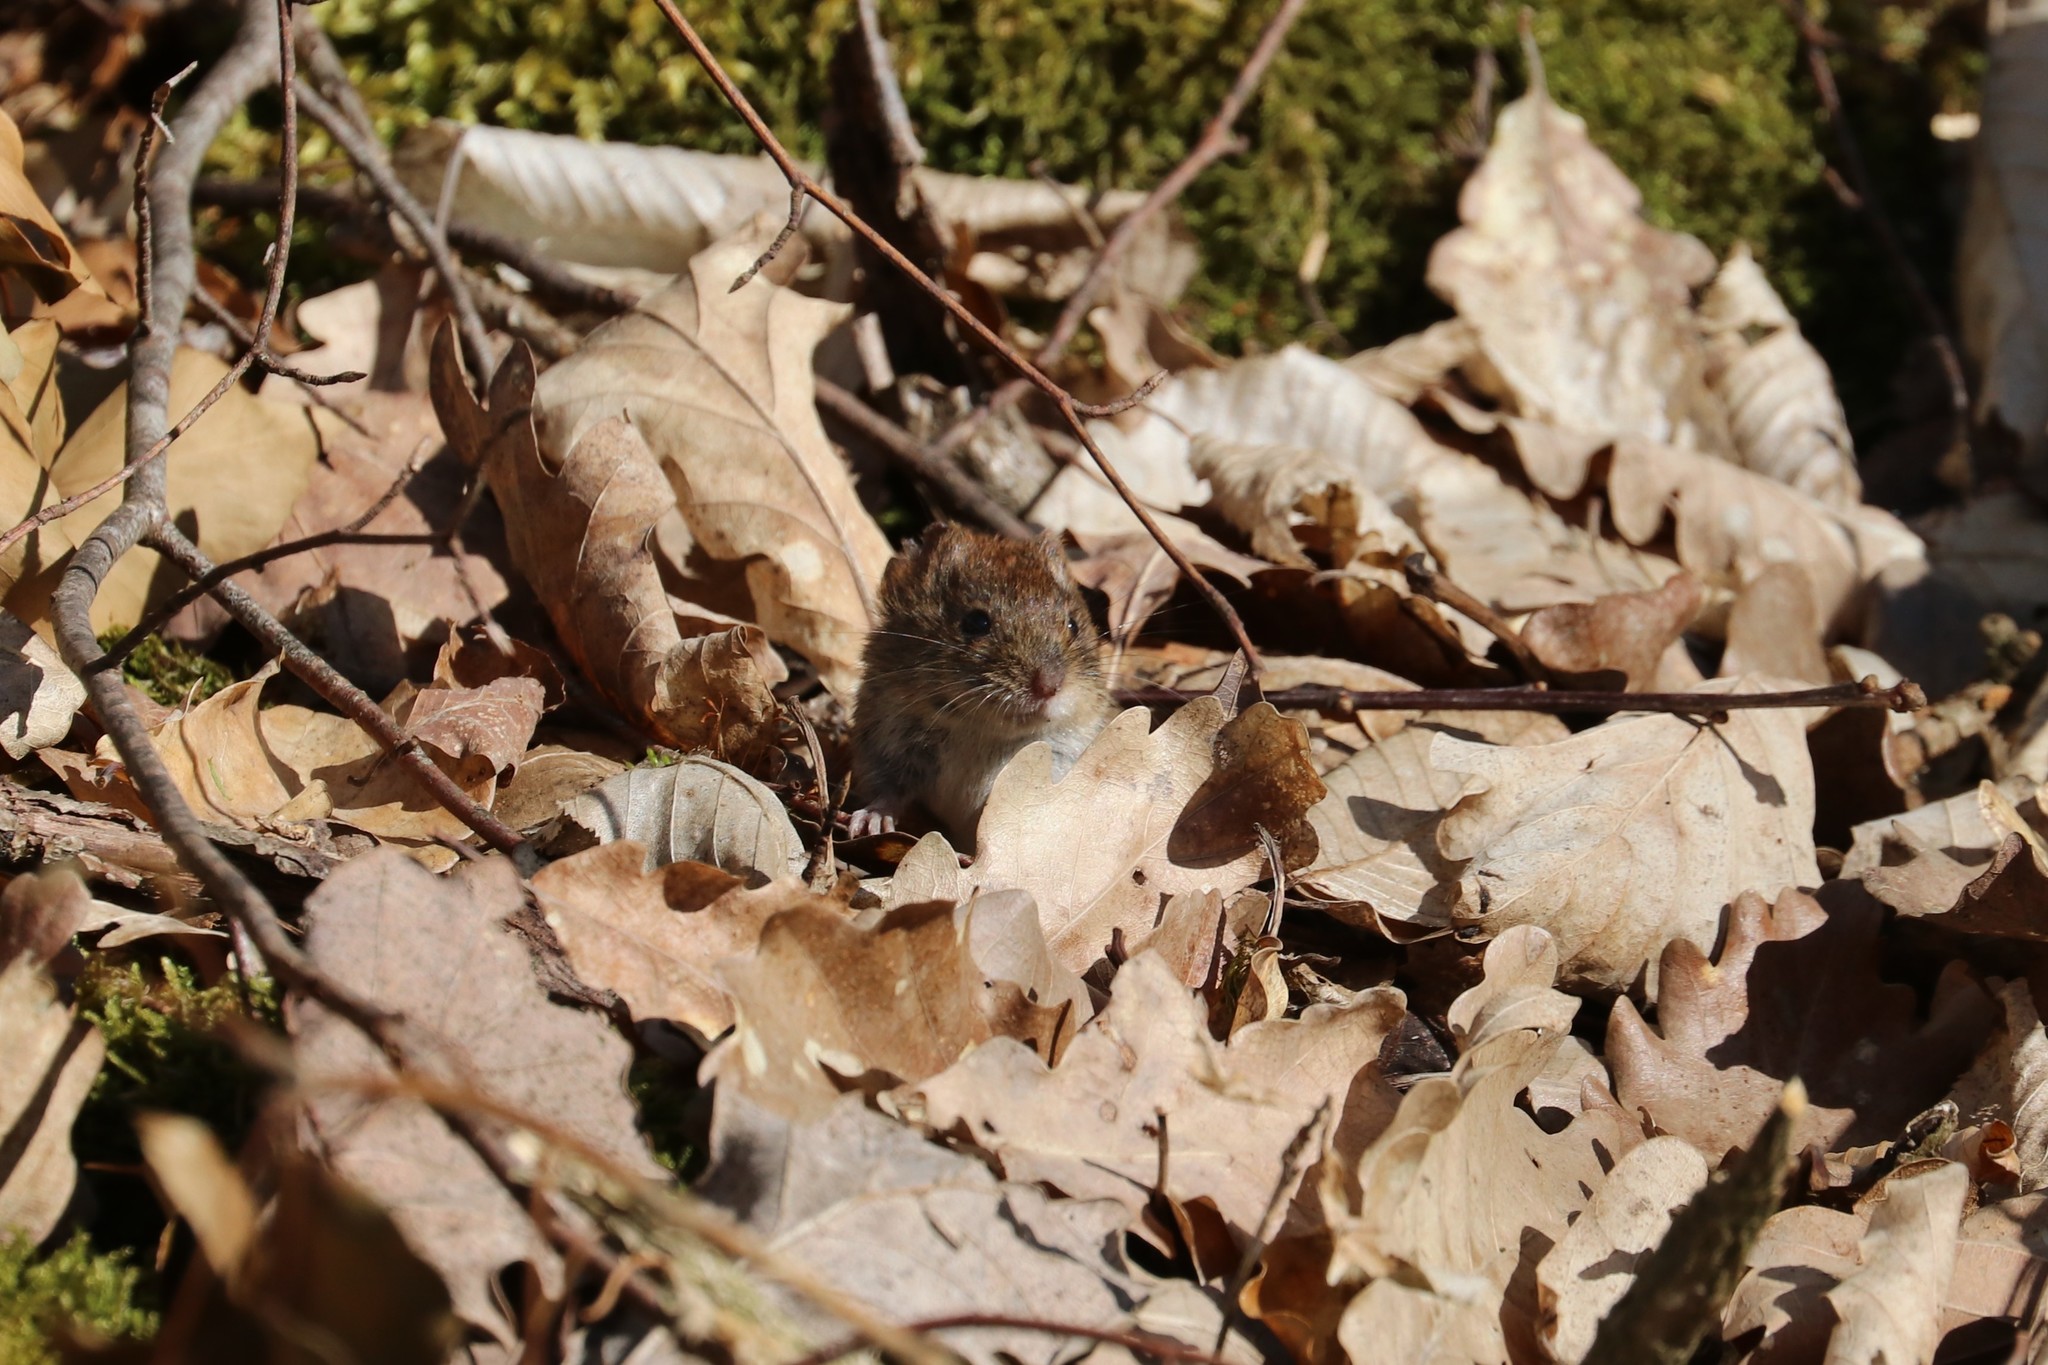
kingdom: Animalia
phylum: Chordata
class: Mammalia
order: Rodentia
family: Cricetidae
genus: Myodes
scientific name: Myodes glareolus
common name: Bank vole
